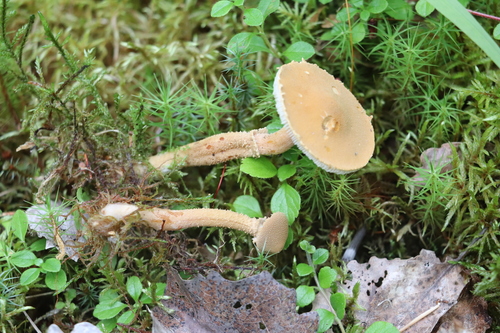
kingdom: Fungi
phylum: Basidiomycota
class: Agaricomycetes
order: Agaricales
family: Tricholomataceae
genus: Cystoderma
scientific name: Cystoderma amianthinum
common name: Earthy powdercap
